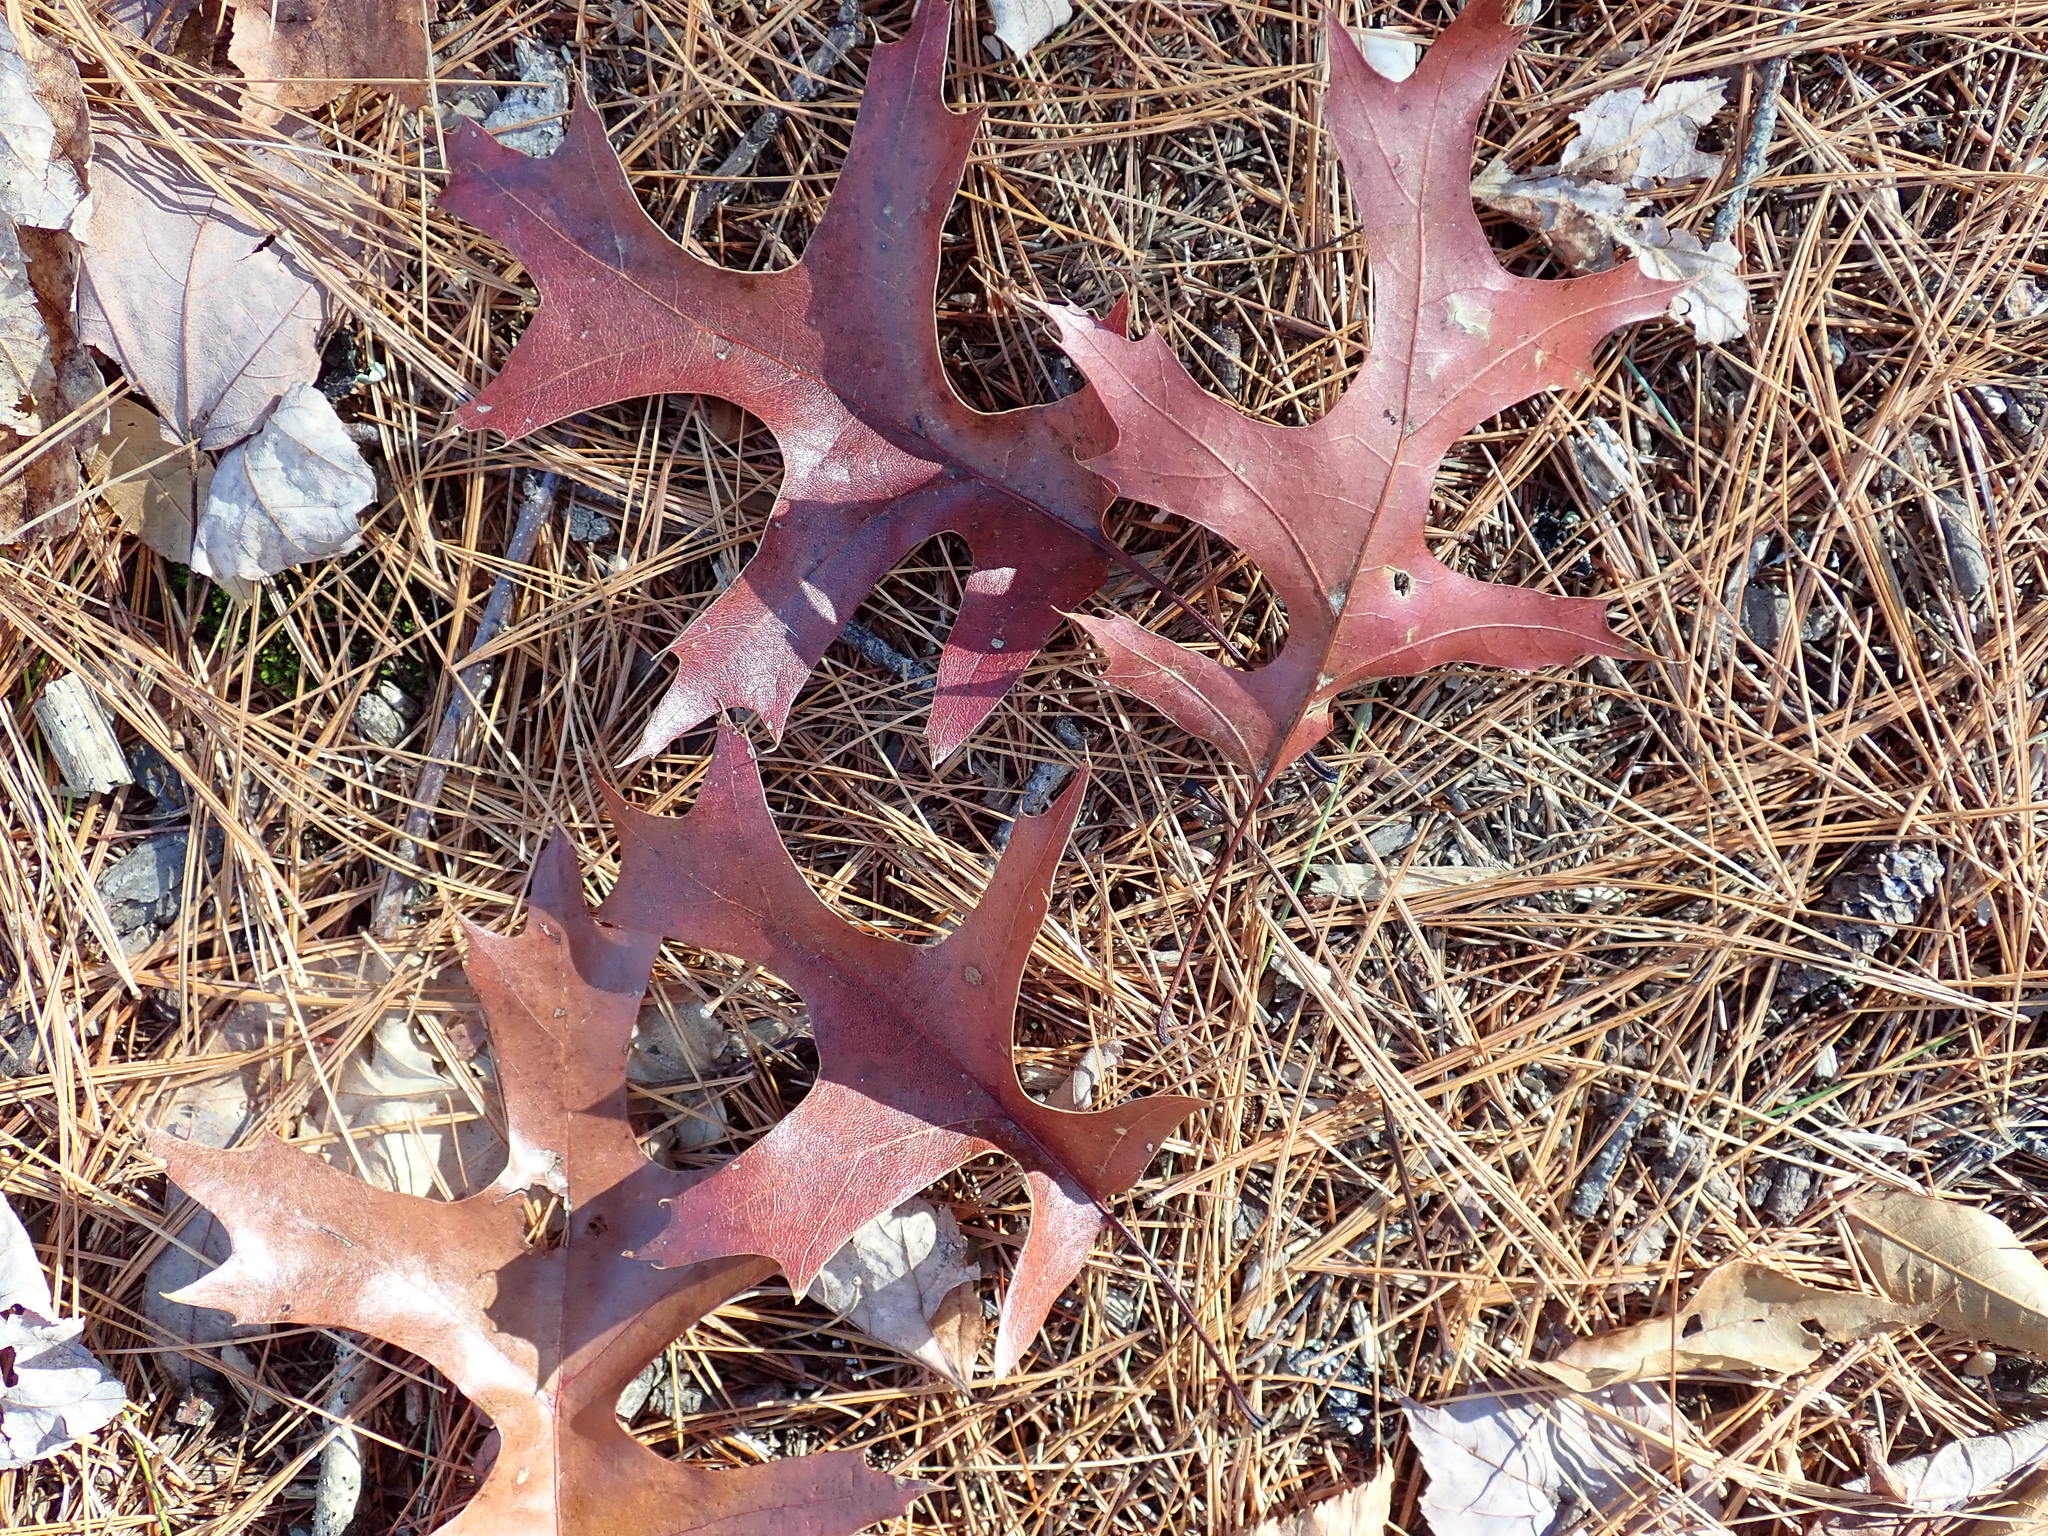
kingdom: Plantae
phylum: Tracheophyta
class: Magnoliopsida
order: Fagales
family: Fagaceae
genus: Quercus
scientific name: Quercus coccinea
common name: Scarlet oak
